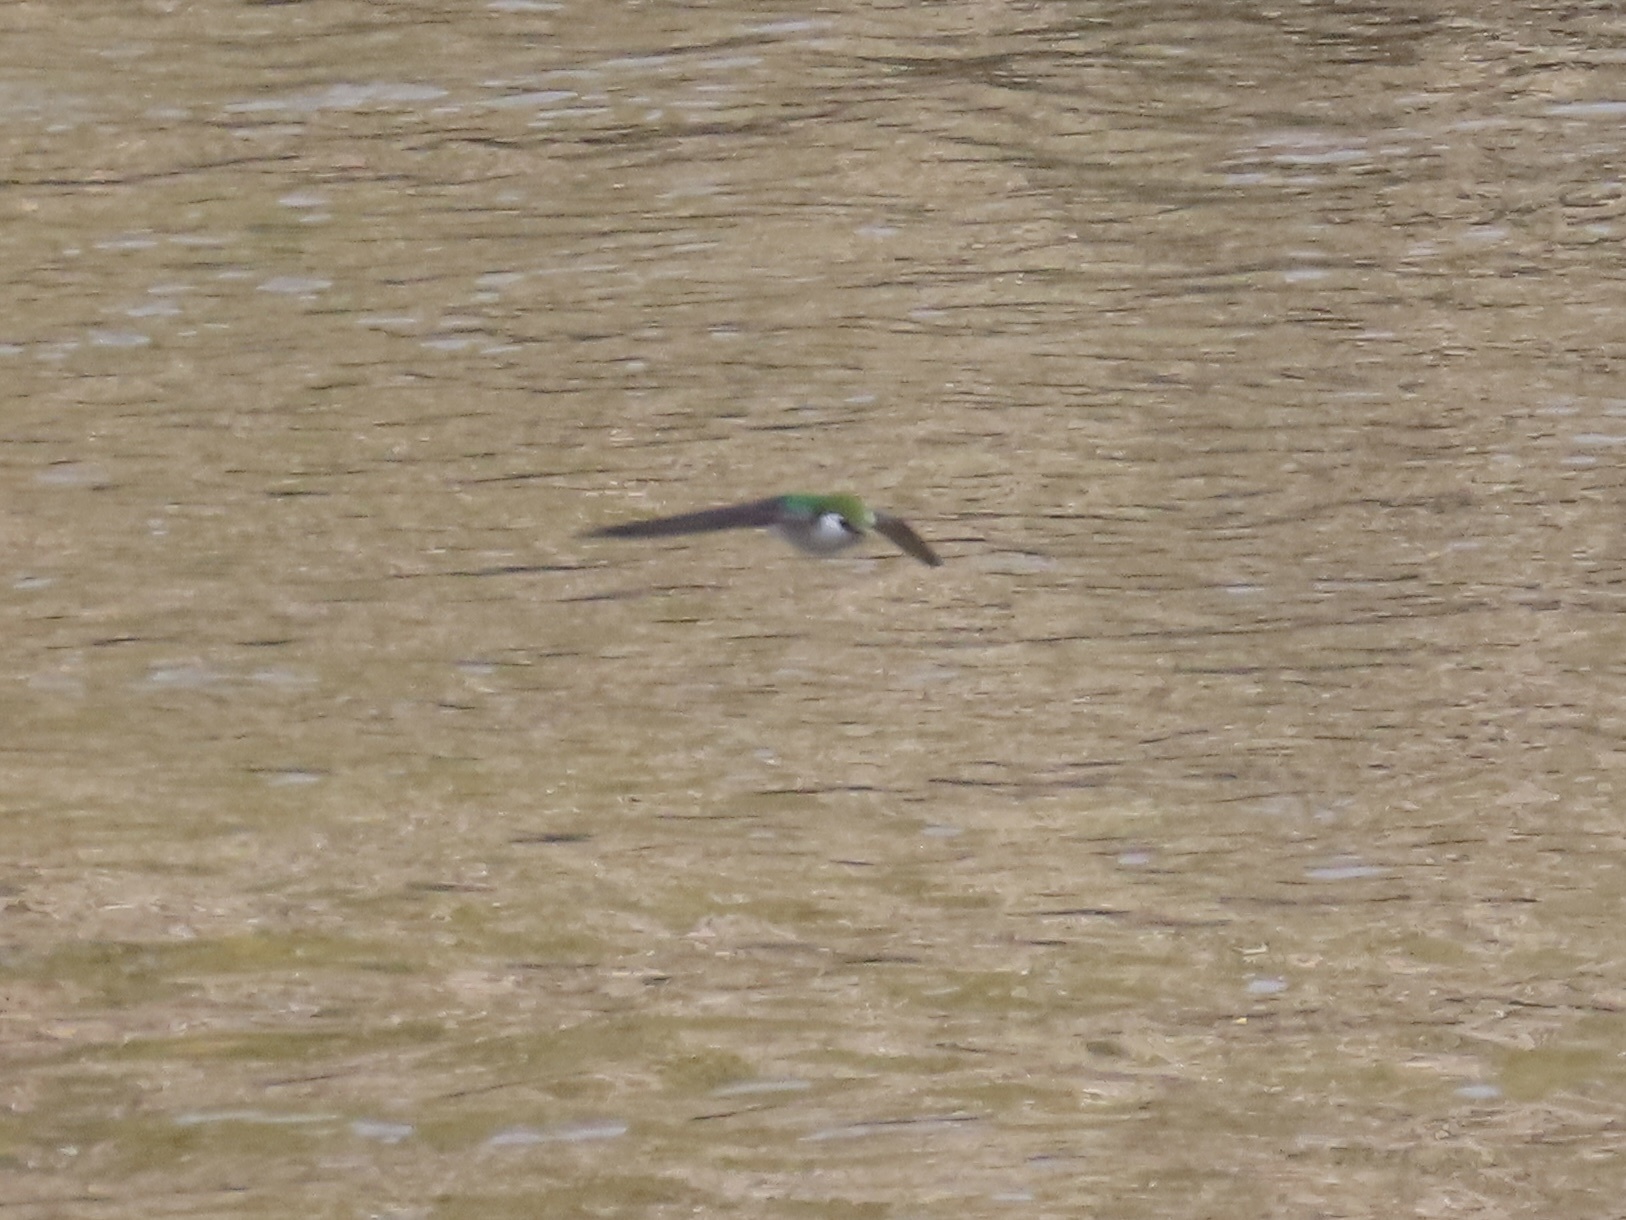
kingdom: Animalia
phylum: Chordata
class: Aves
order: Passeriformes
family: Hirundinidae
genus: Tachycineta
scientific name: Tachycineta thalassina
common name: Violet-green swallow
